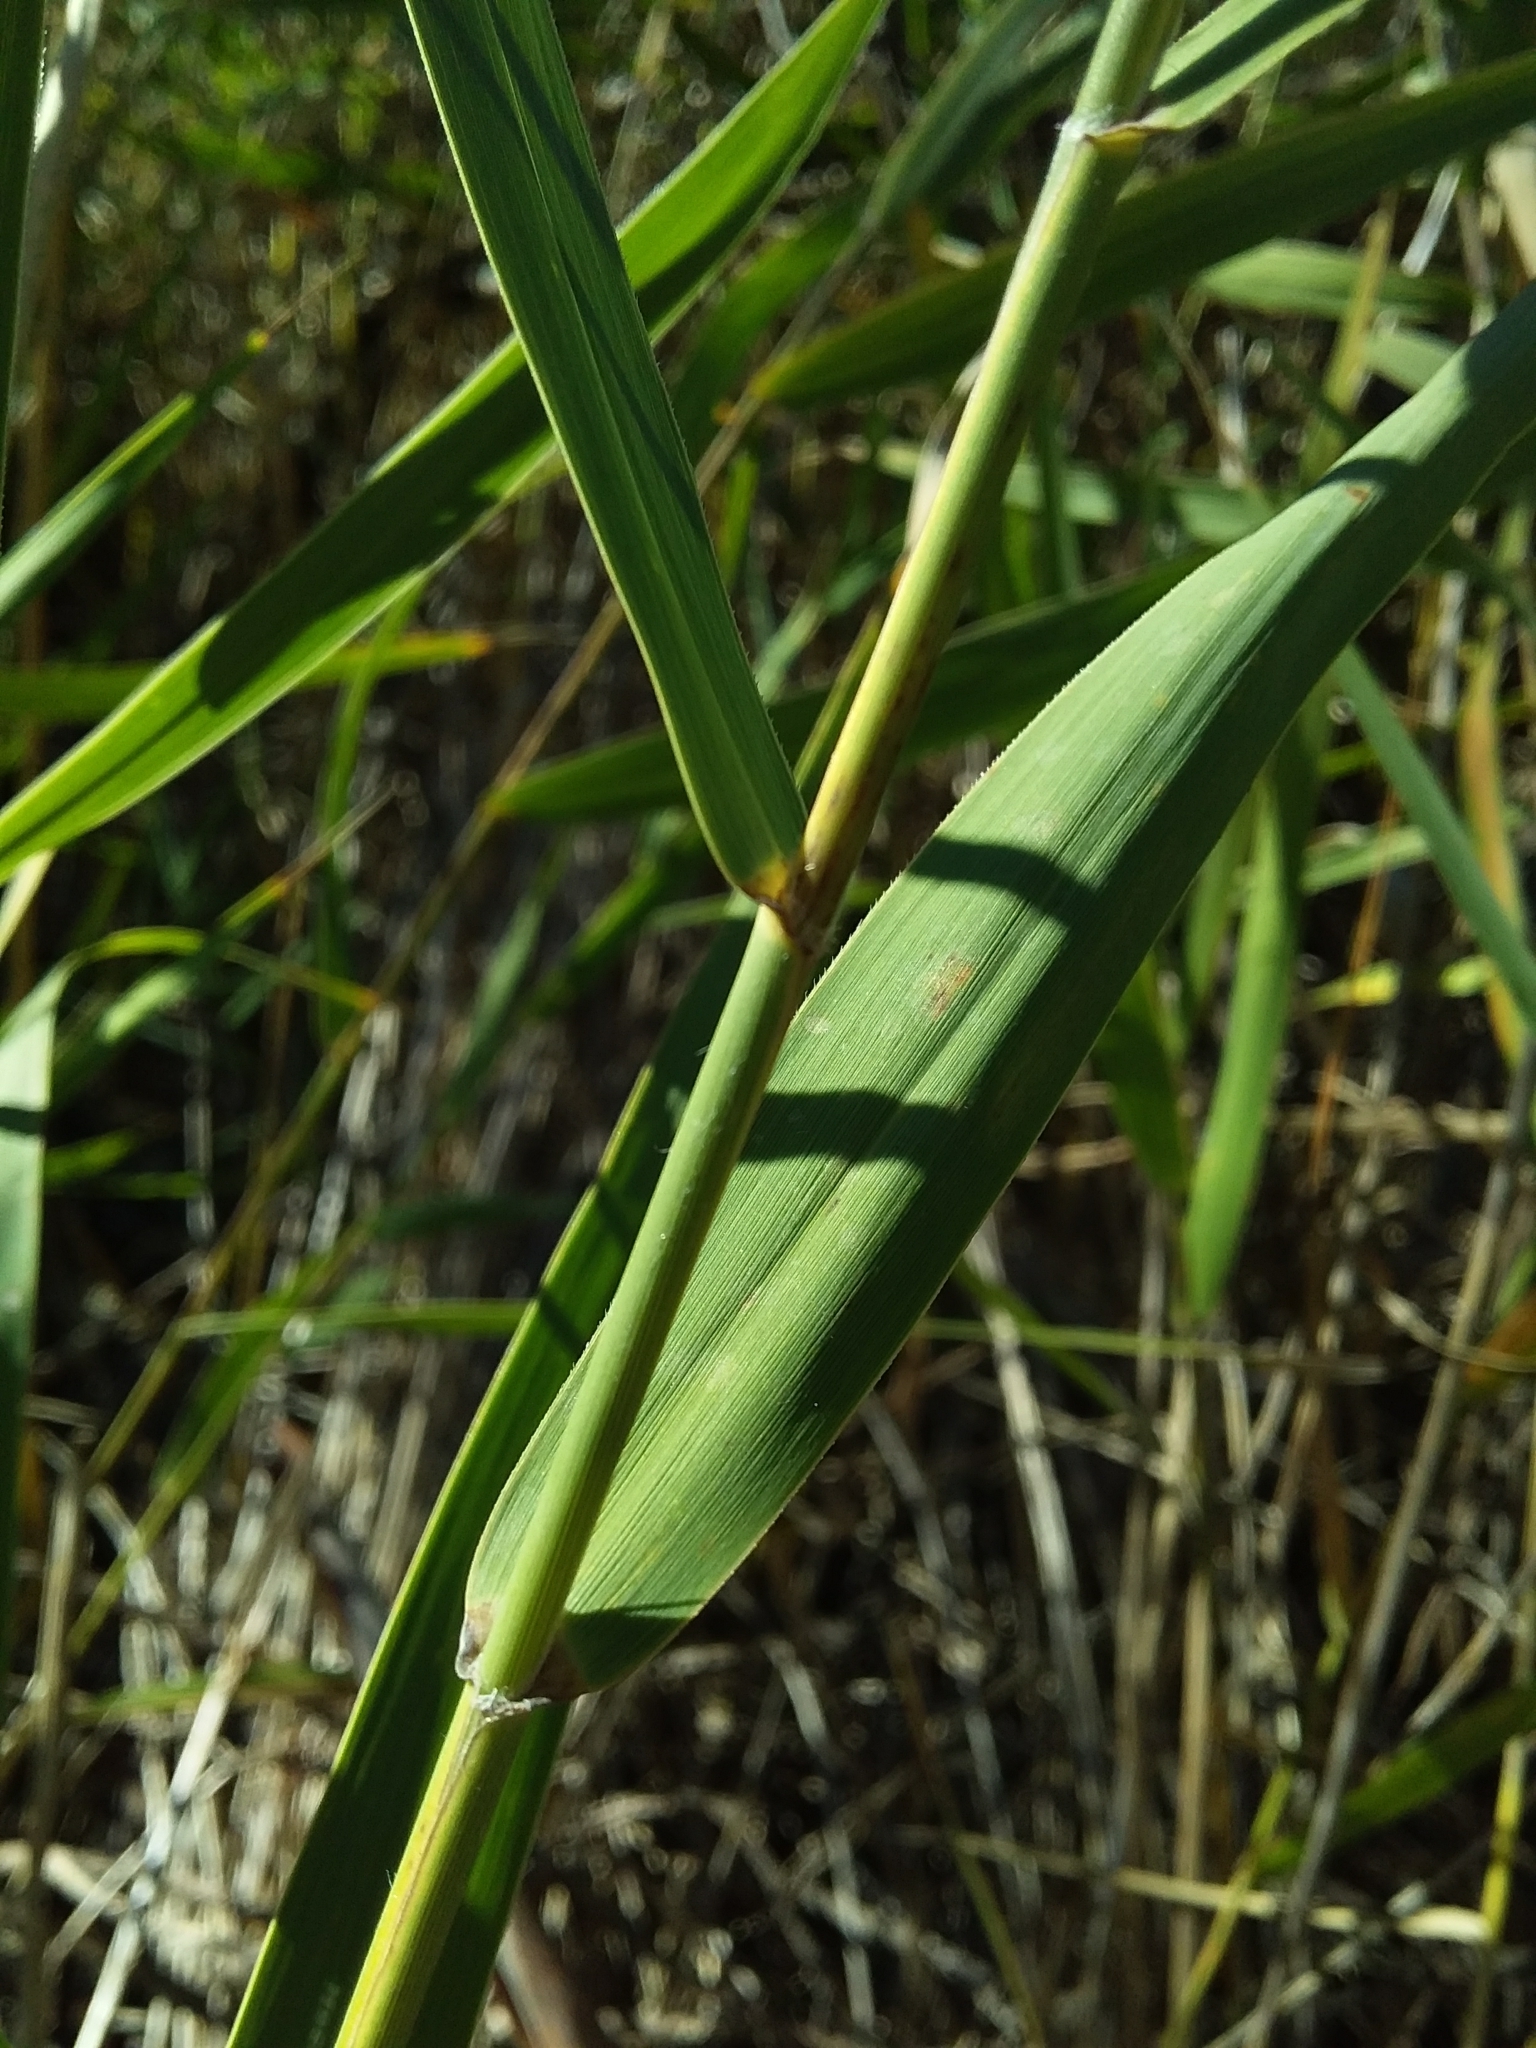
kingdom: Plantae
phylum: Tracheophyta
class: Liliopsida
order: Poales
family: Poaceae
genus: Phragmites
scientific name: Phragmites australis
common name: Common reed
